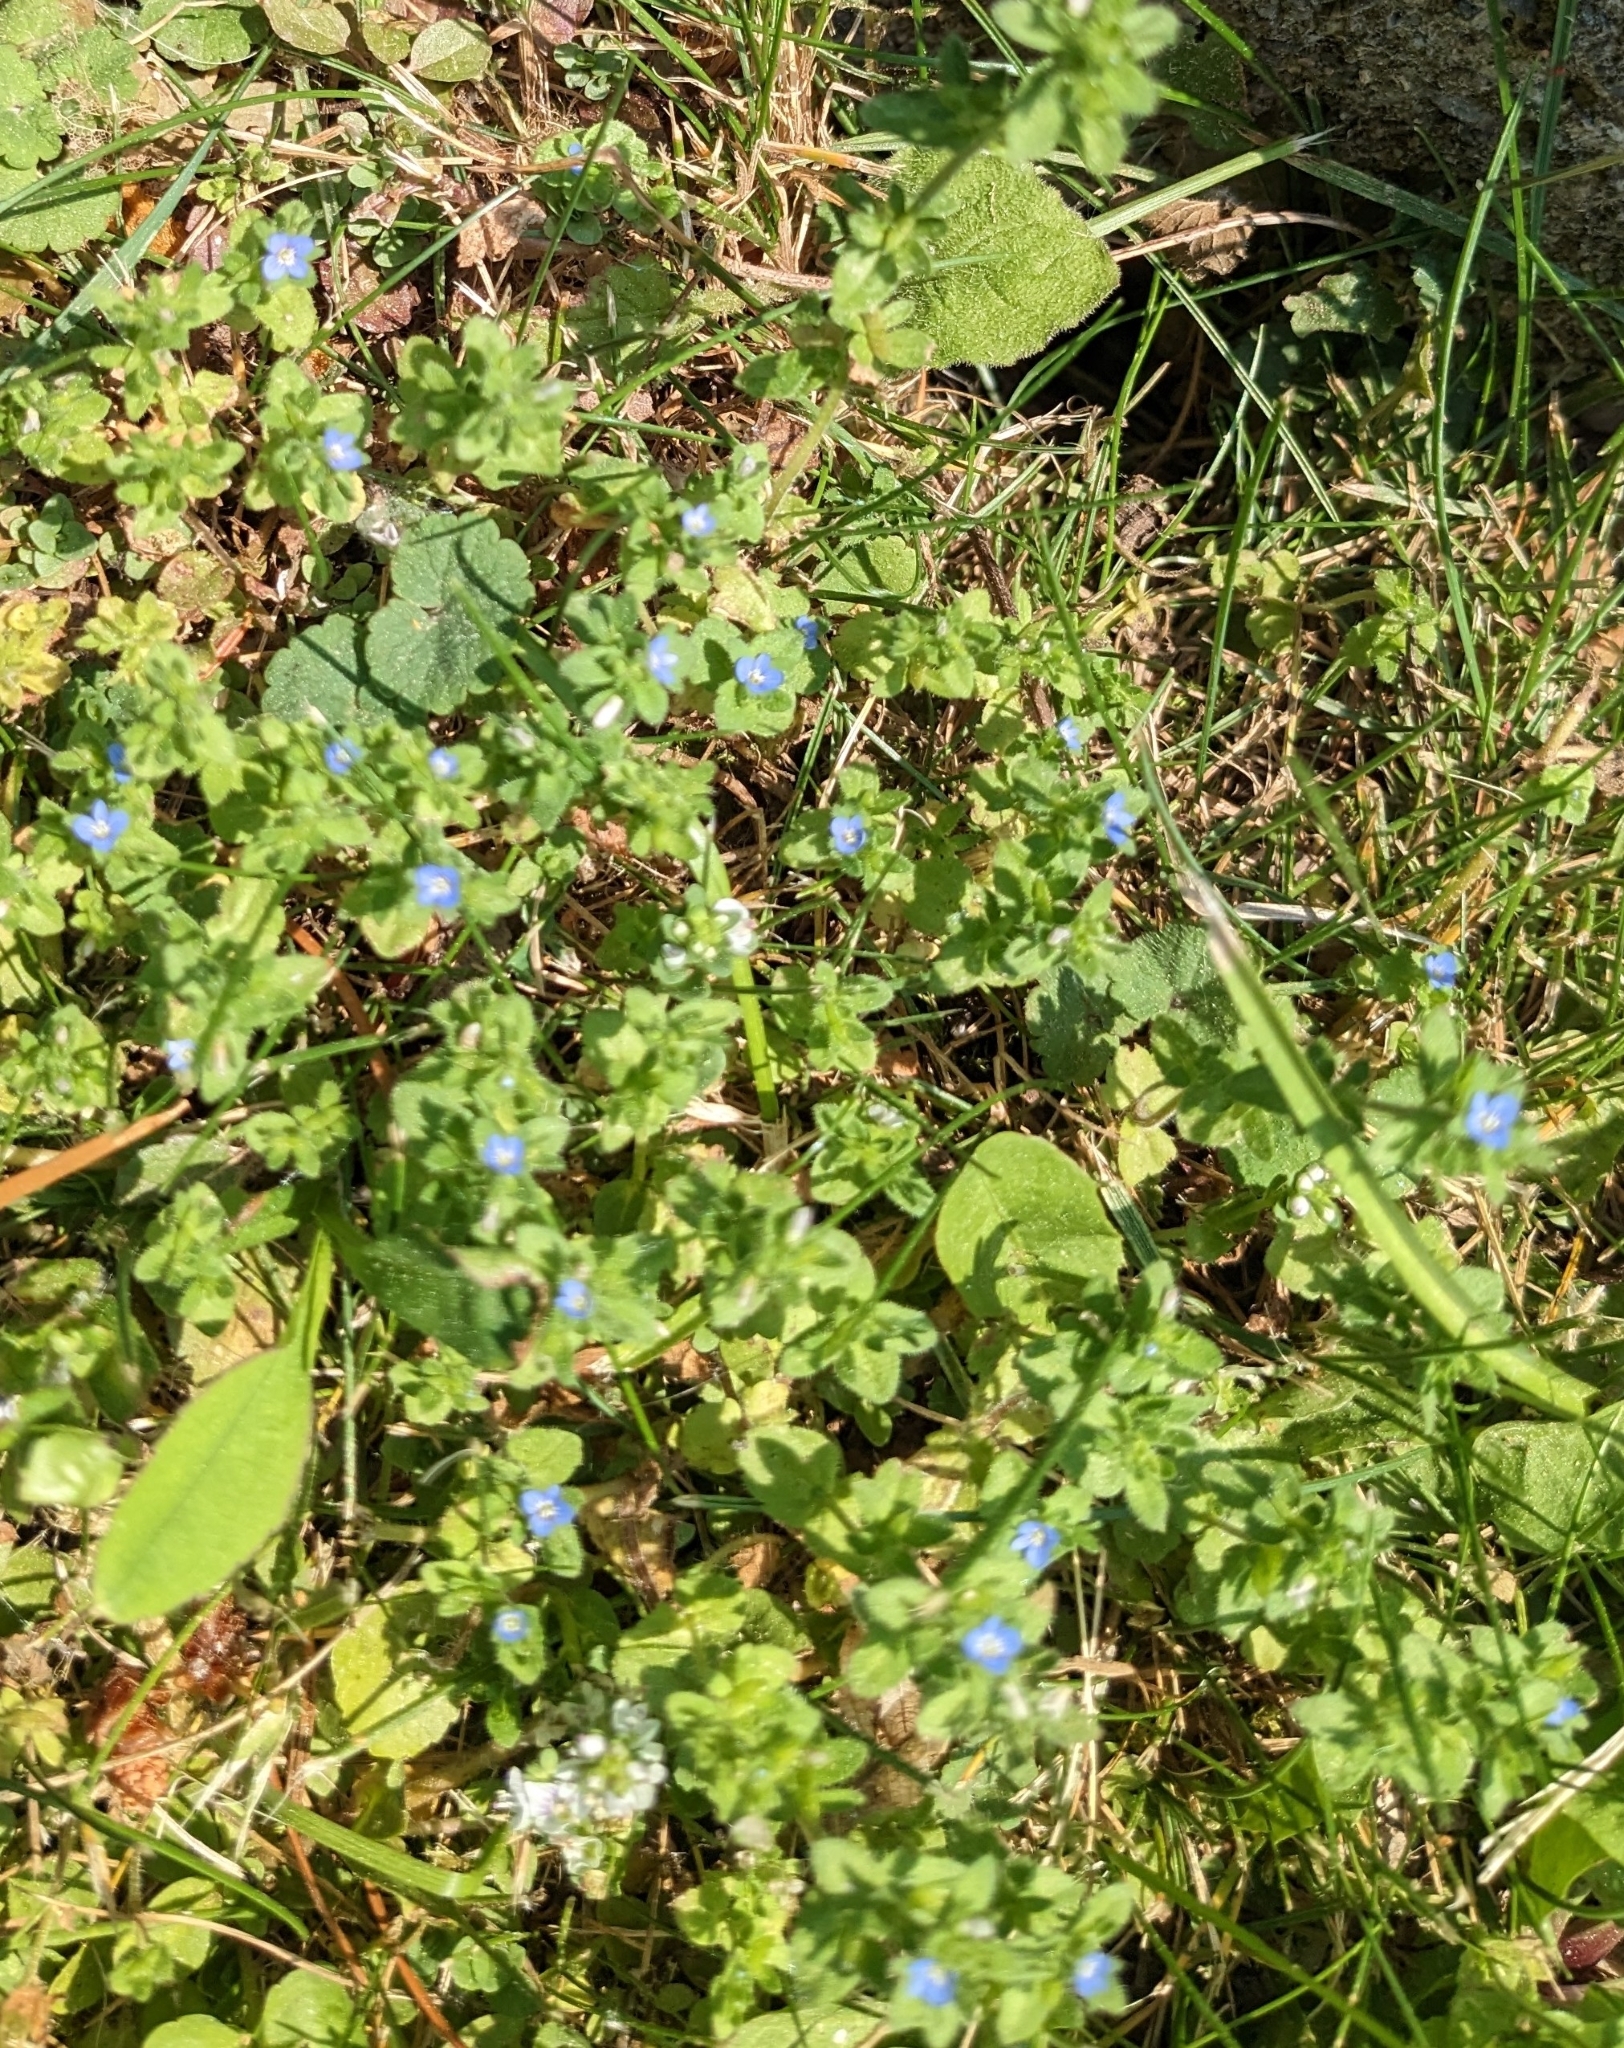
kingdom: Plantae
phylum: Tracheophyta
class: Magnoliopsida
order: Lamiales
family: Plantaginaceae
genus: Veronica
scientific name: Veronica arvensis
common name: Corn speedwell
